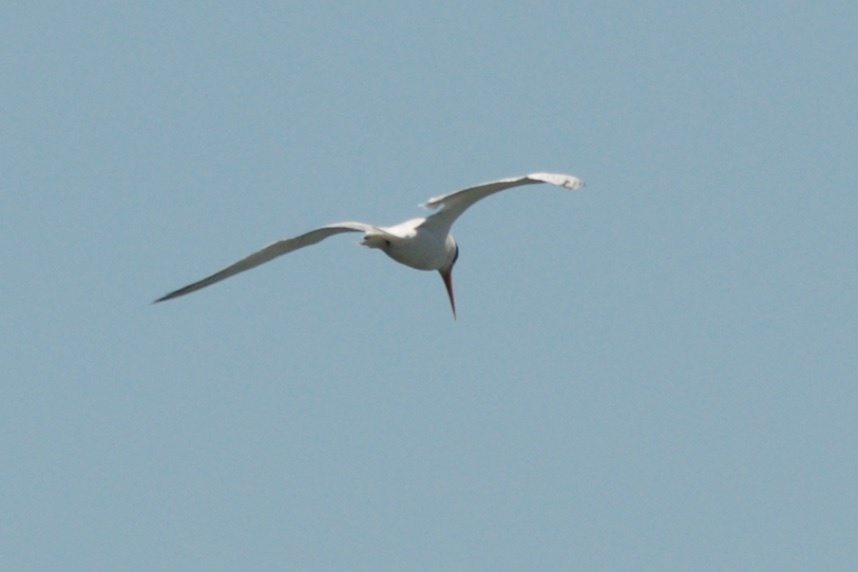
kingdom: Animalia
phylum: Chordata
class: Aves
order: Charadriiformes
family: Laridae
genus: Thalasseus
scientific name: Thalasseus elegans
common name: Elegant tern
